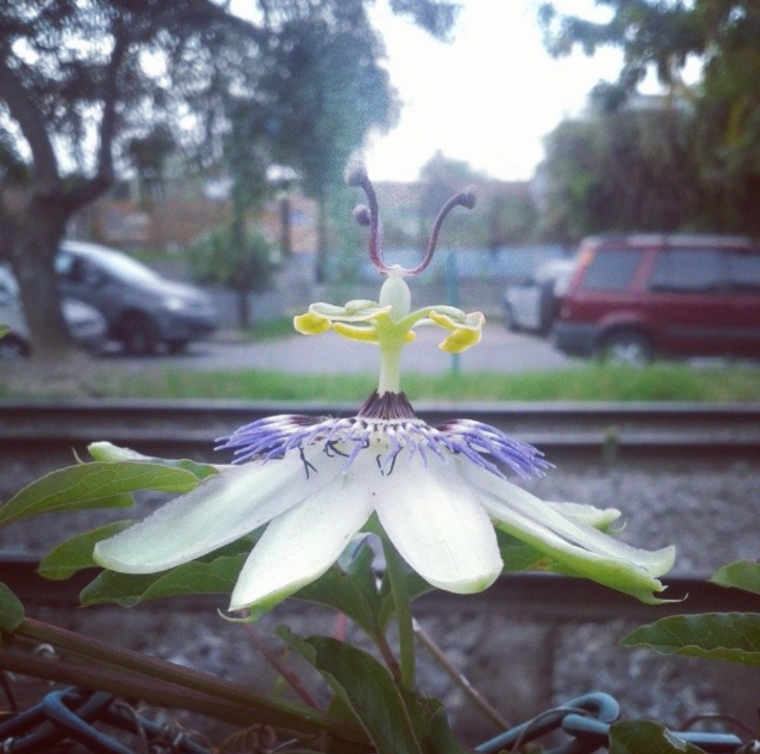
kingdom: Plantae
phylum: Tracheophyta
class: Magnoliopsida
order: Malpighiales
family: Passifloraceae
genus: Passiflora
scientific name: Passiflora caerulea
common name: Blue passionflower
